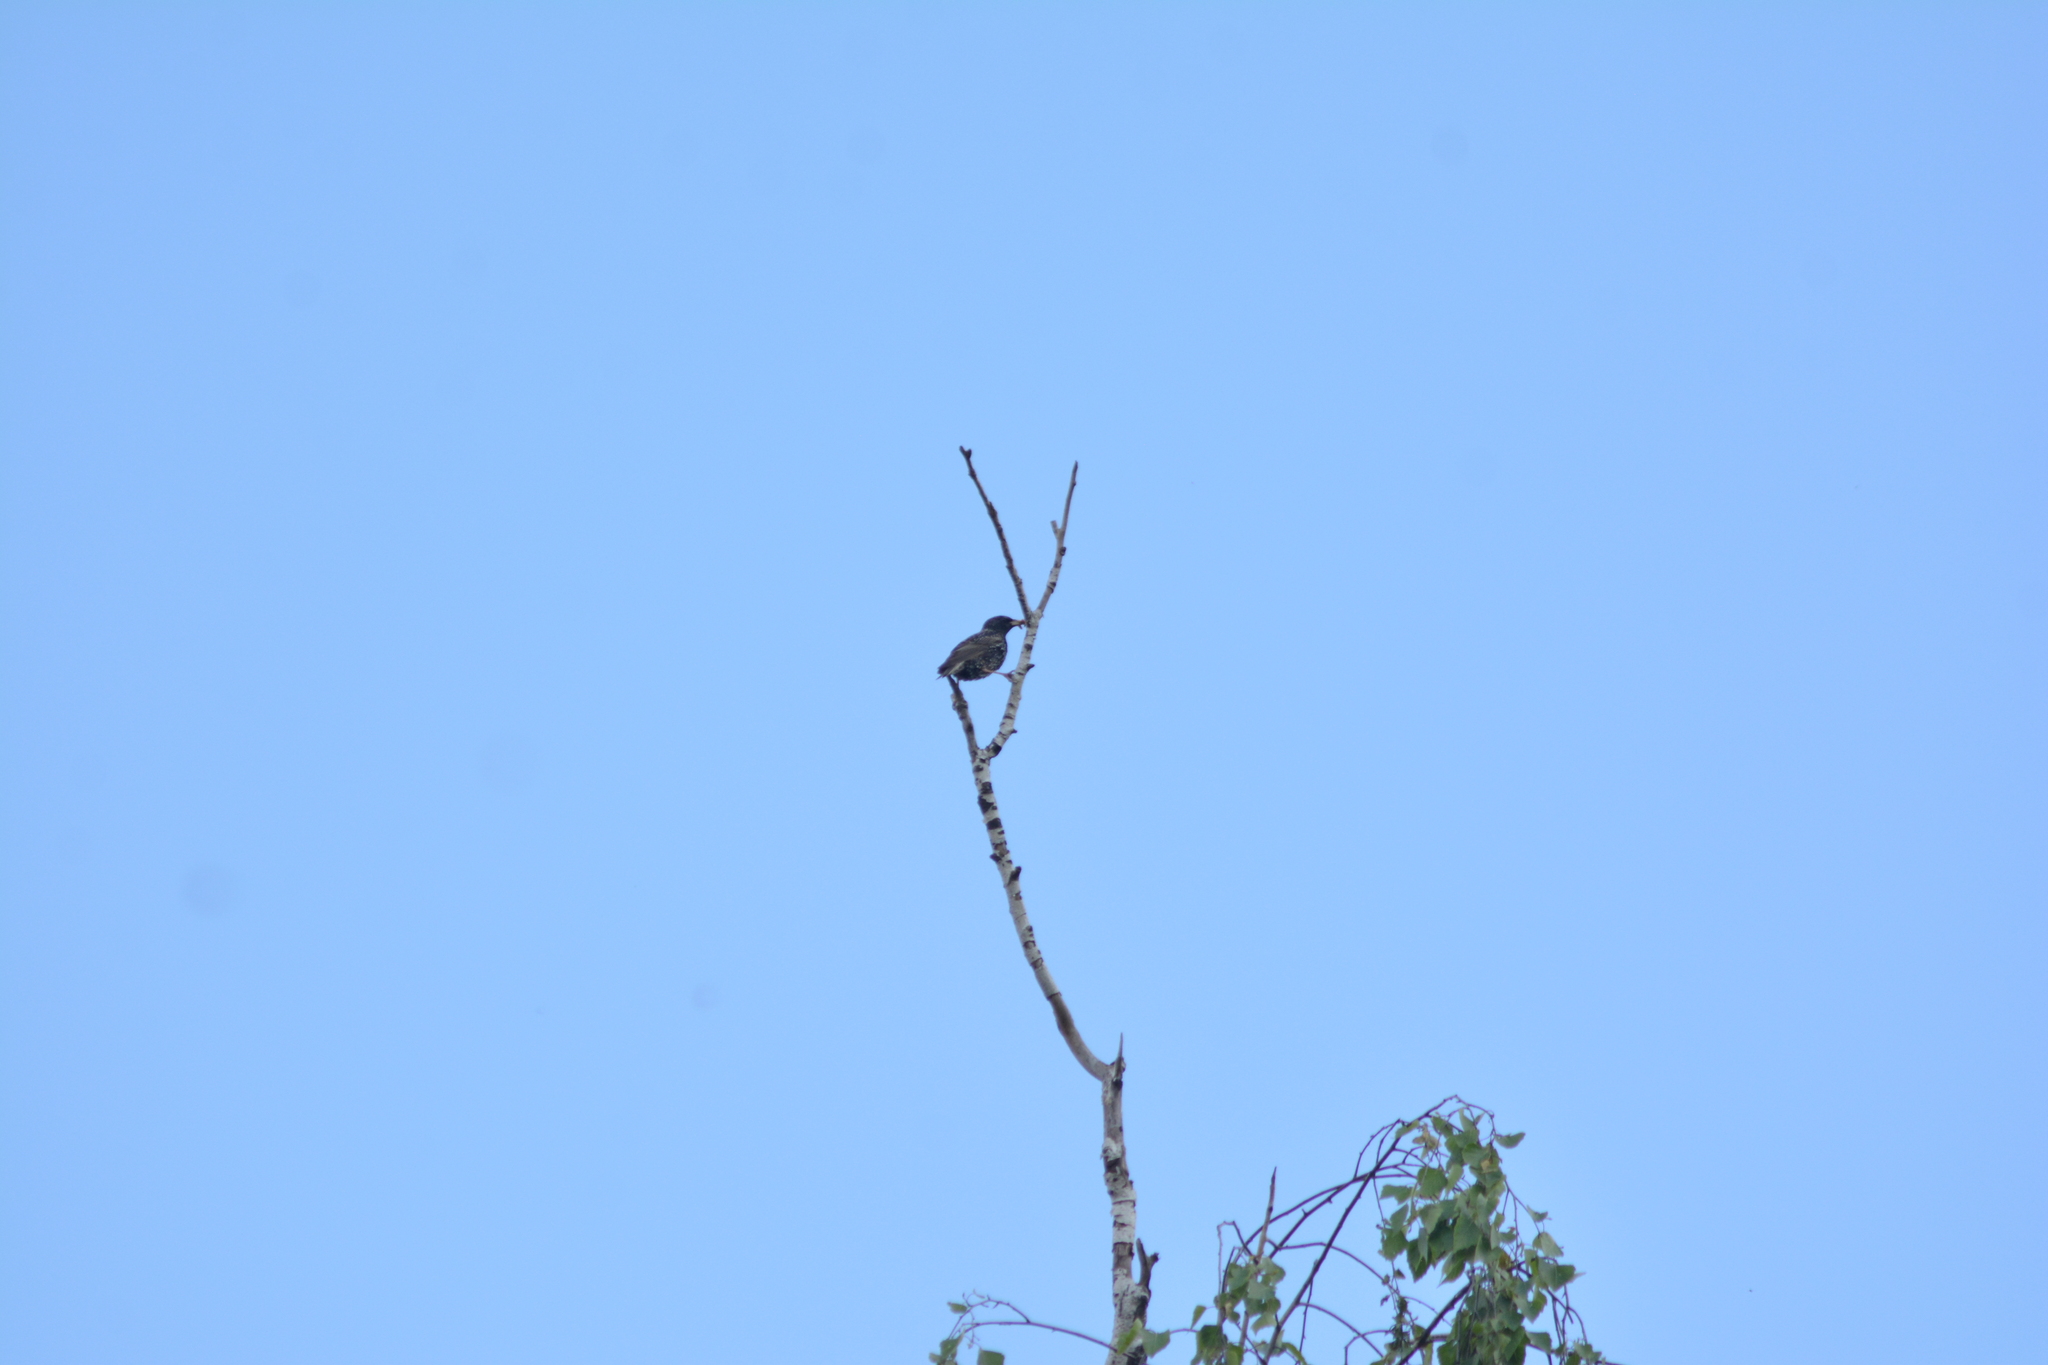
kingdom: Animalia
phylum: Chordata
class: Aves
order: Passeriformes
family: Sturnidae
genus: Sturnus
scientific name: Sturnus vulgaris
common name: Common starling
